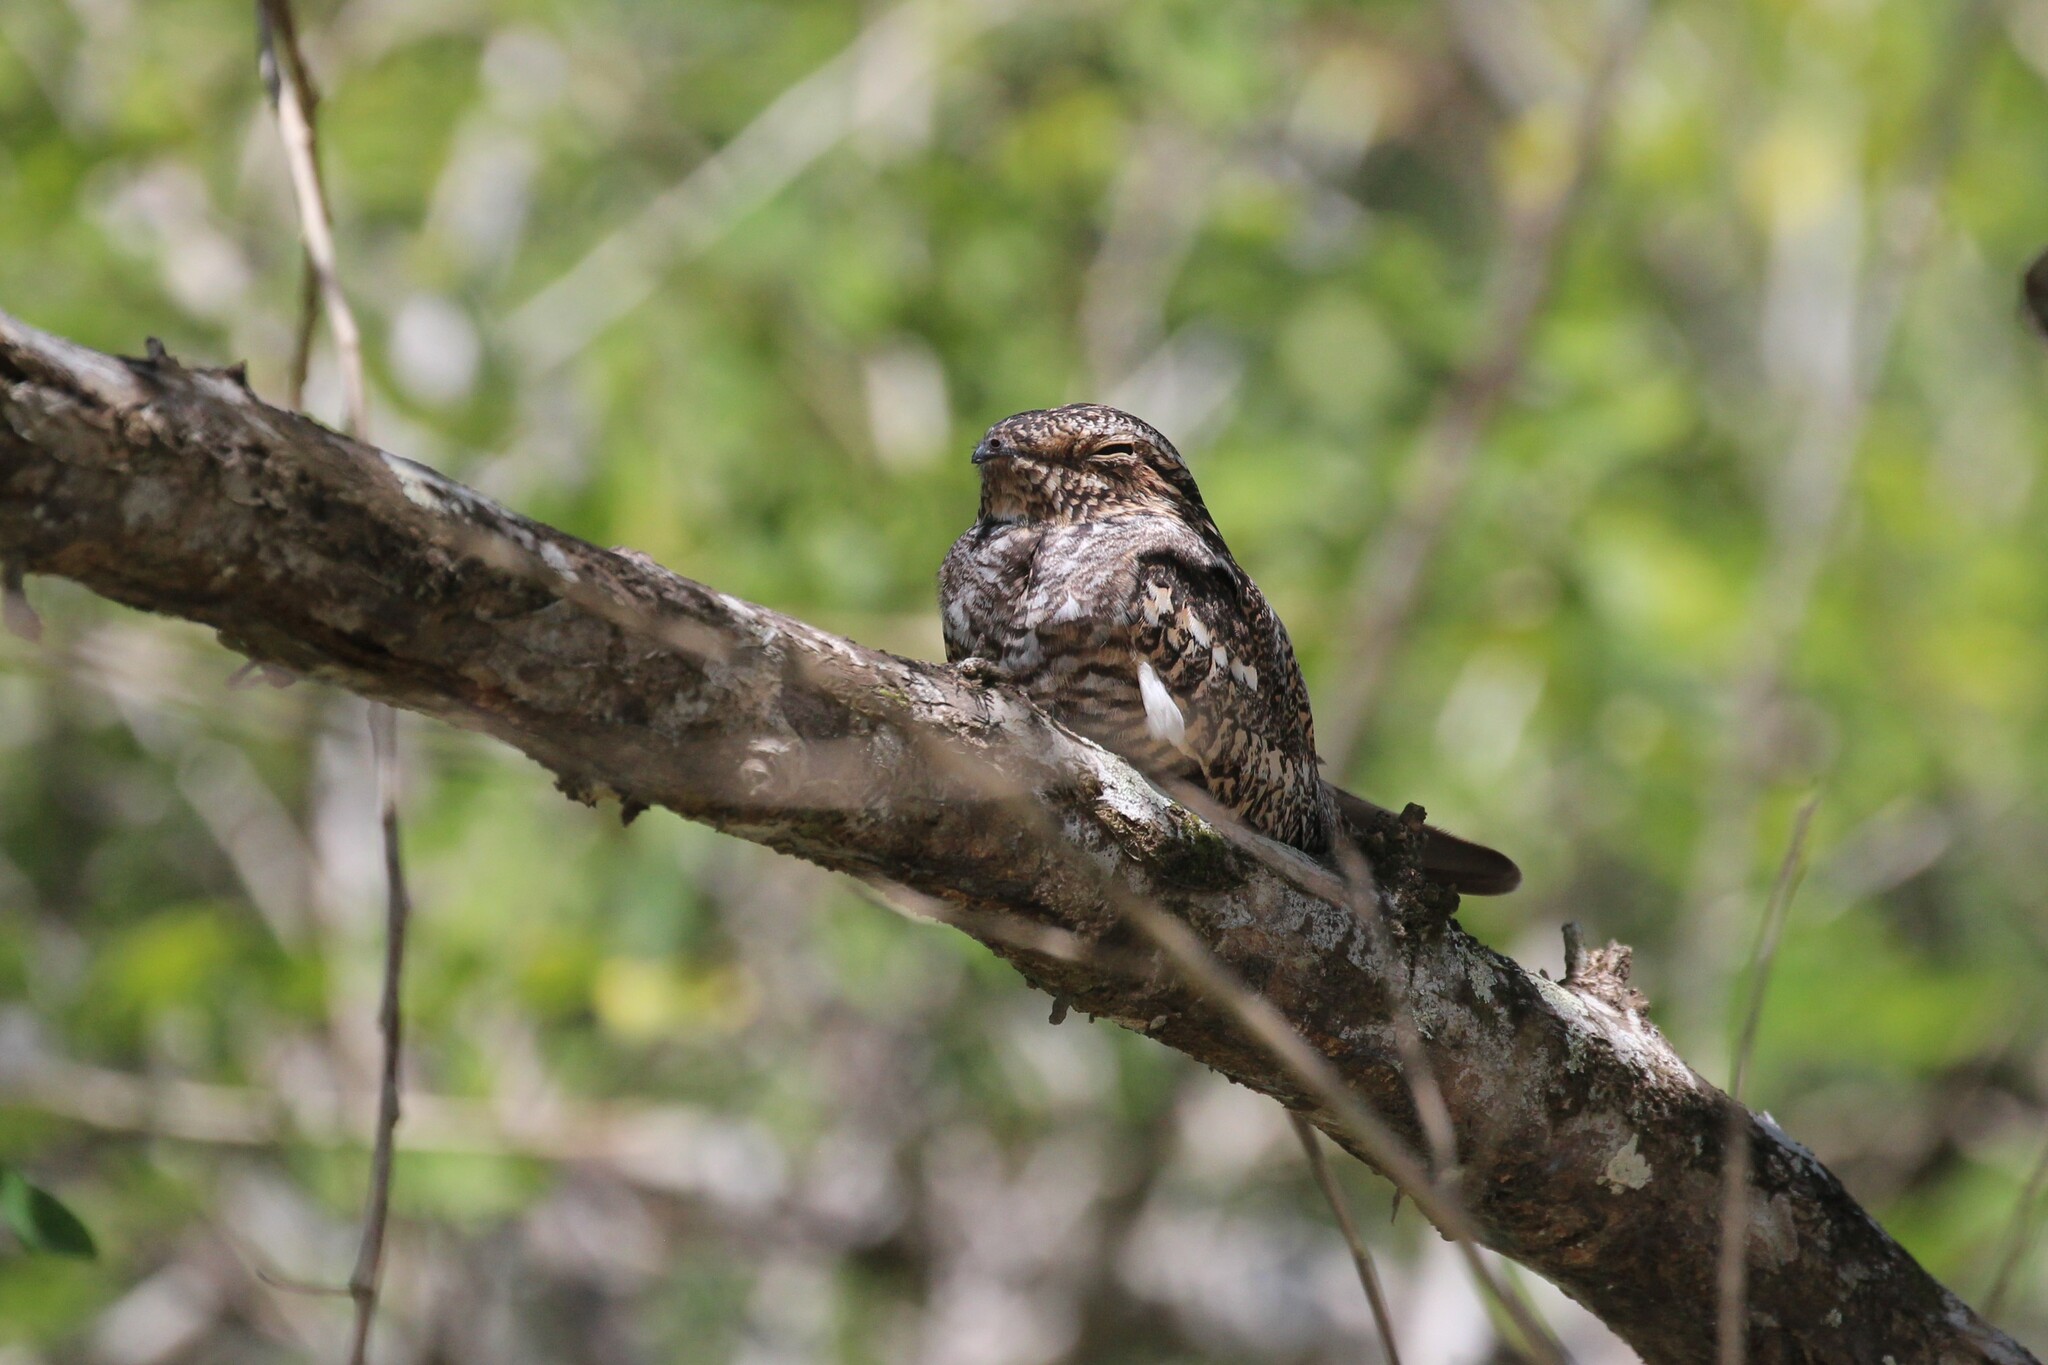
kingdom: Animalia
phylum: Chordata
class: Aves
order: Caprimulgiformes
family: Caprimulgidae
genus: Chordeiles
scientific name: Chordeiles acutipennis
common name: Lesser nighthawk
